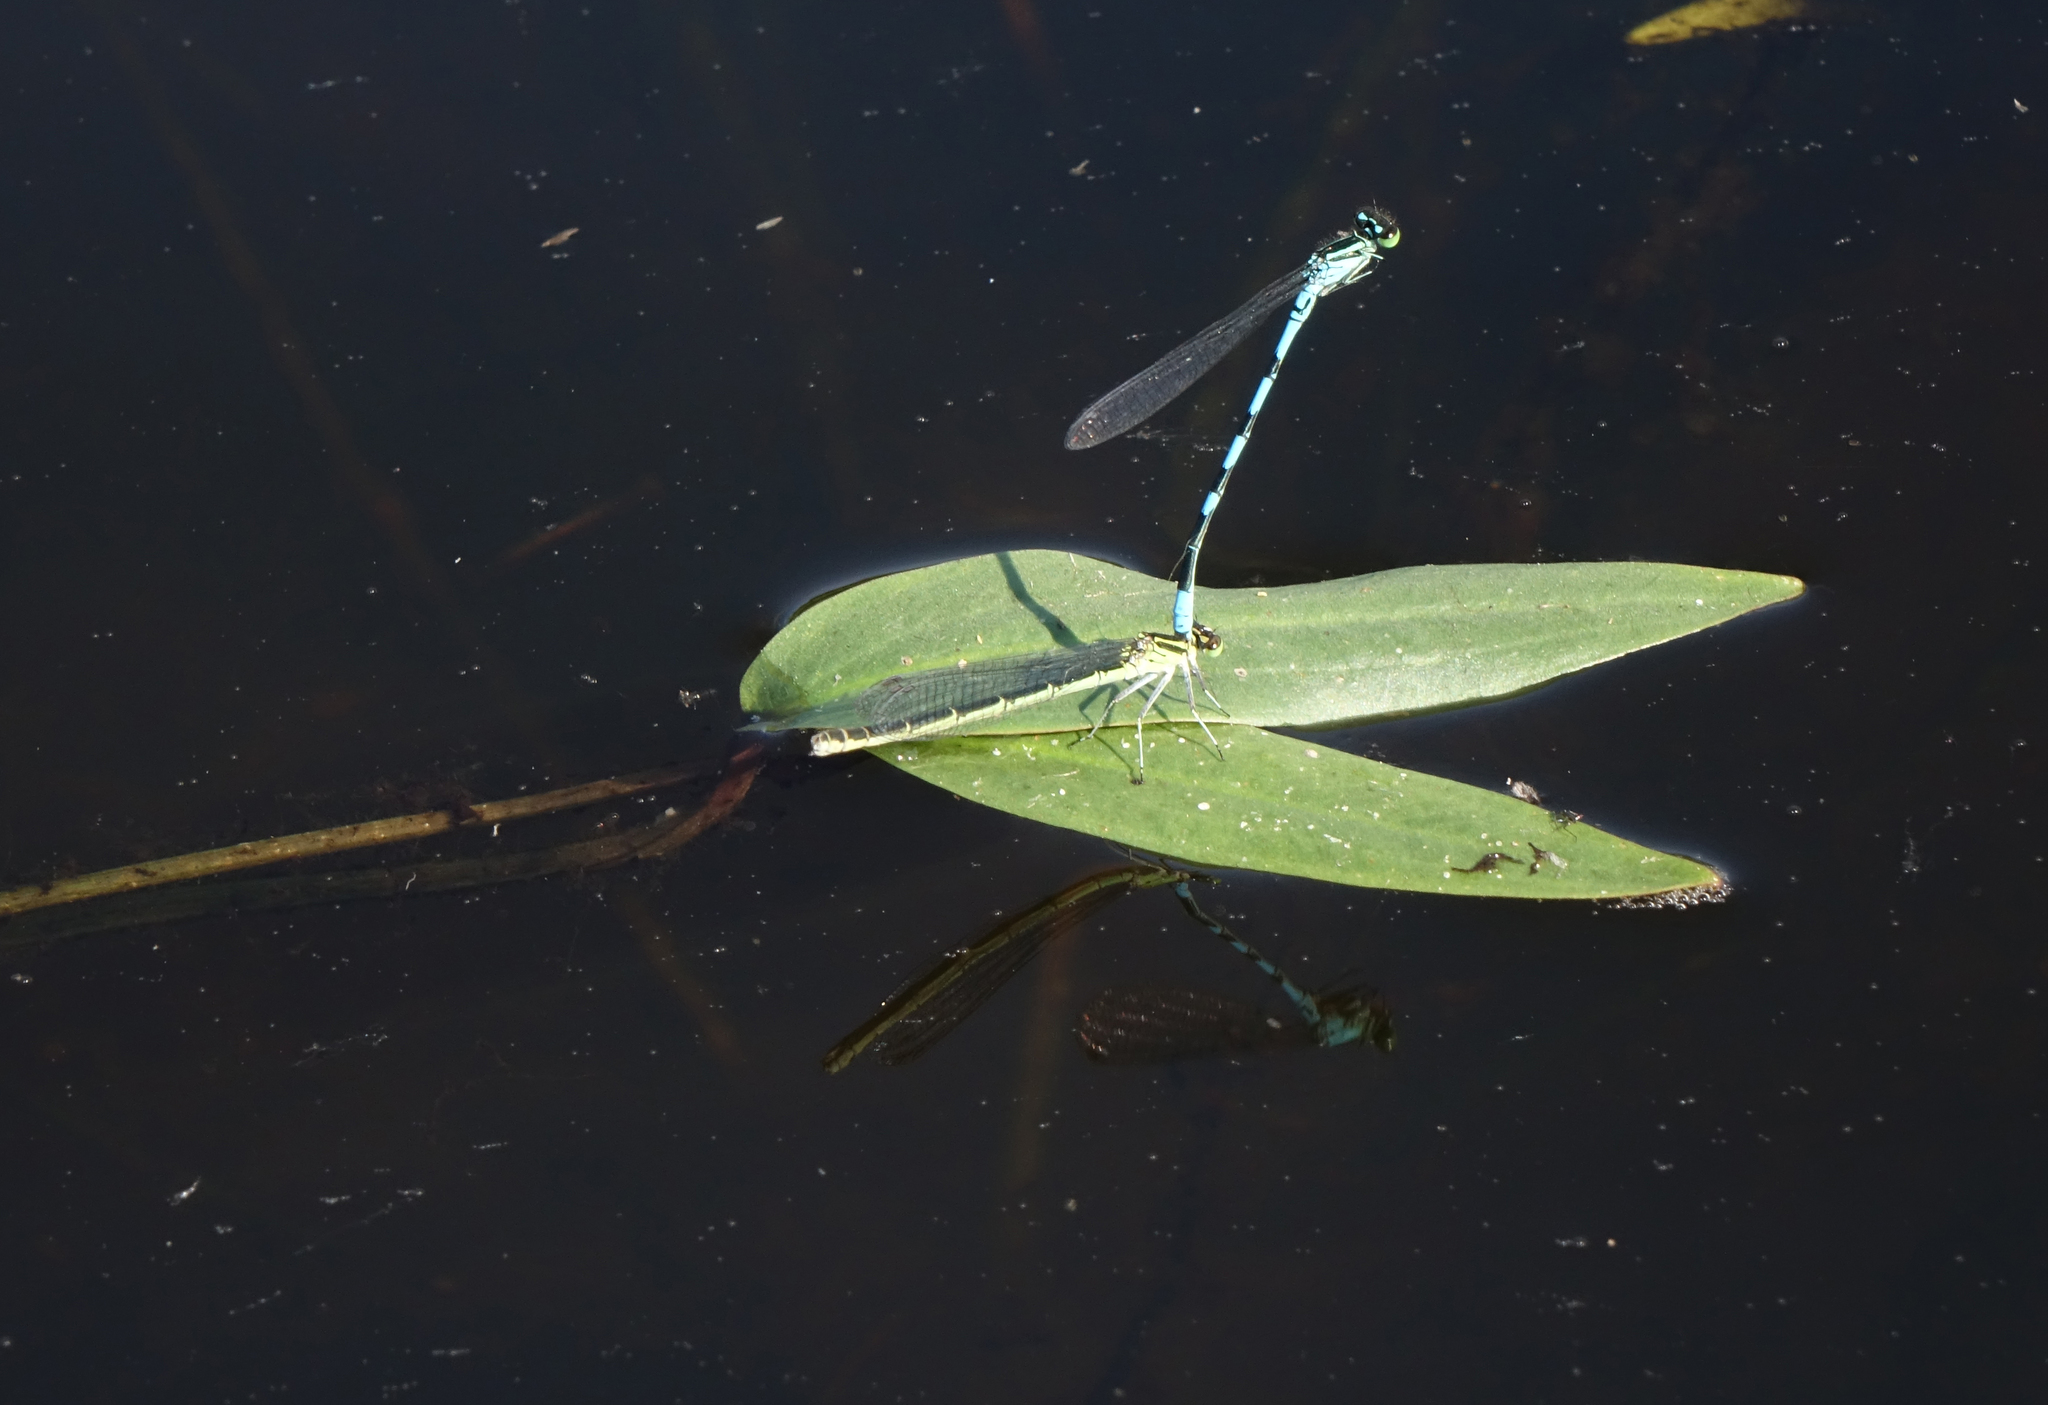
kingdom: Animalia
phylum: Arthropoda
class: Insecta
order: Odonata
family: Coenagrionidae
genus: Coenagrion
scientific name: Coenagrion hastulatum
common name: Spearhead bluet
